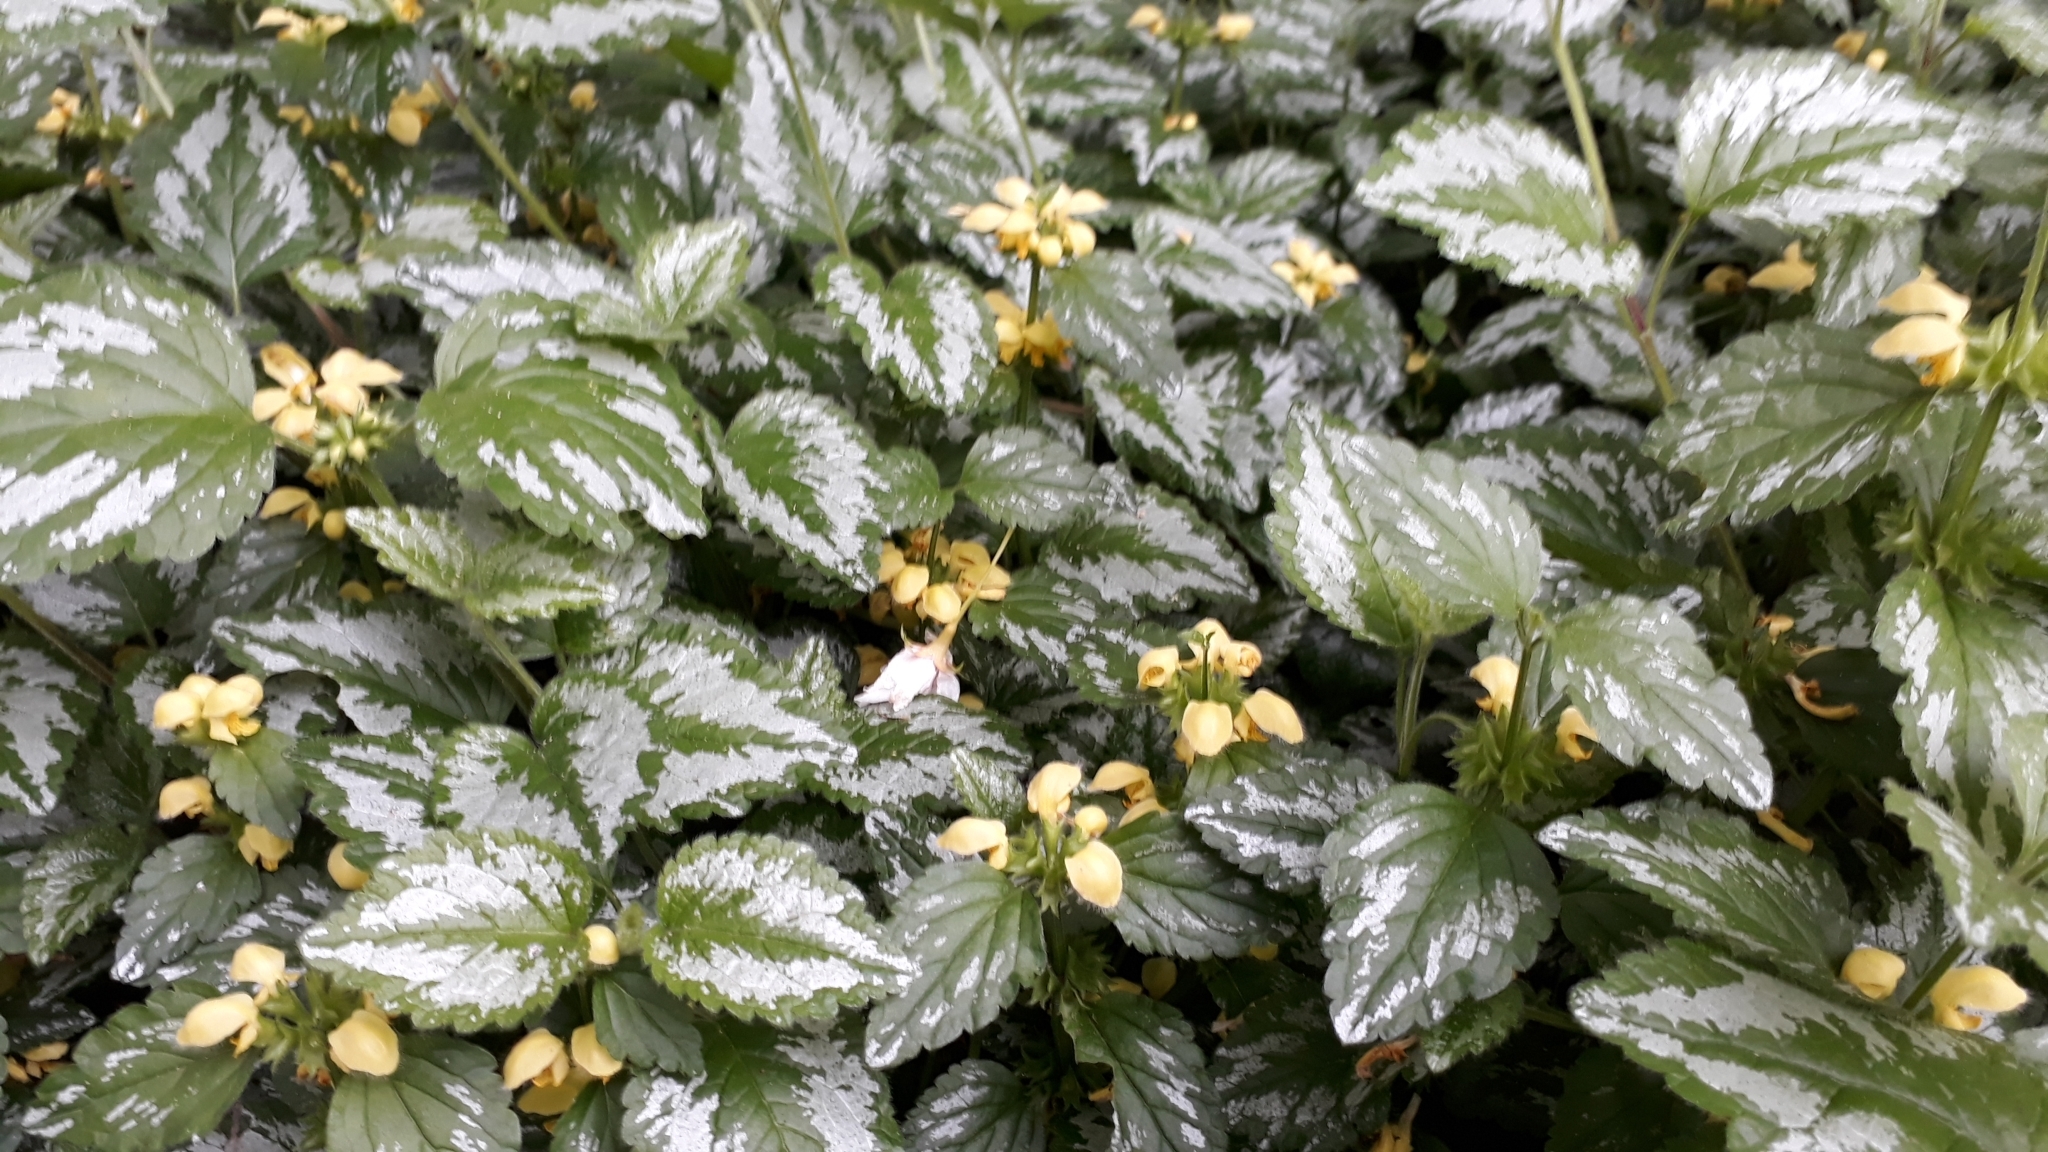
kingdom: Plantae
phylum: Tracheophyta
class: Magnoliopsida
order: Lamiales
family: Lamiaceae
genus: Lamium
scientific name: Lamium galeobdolon
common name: Yellow archangel
